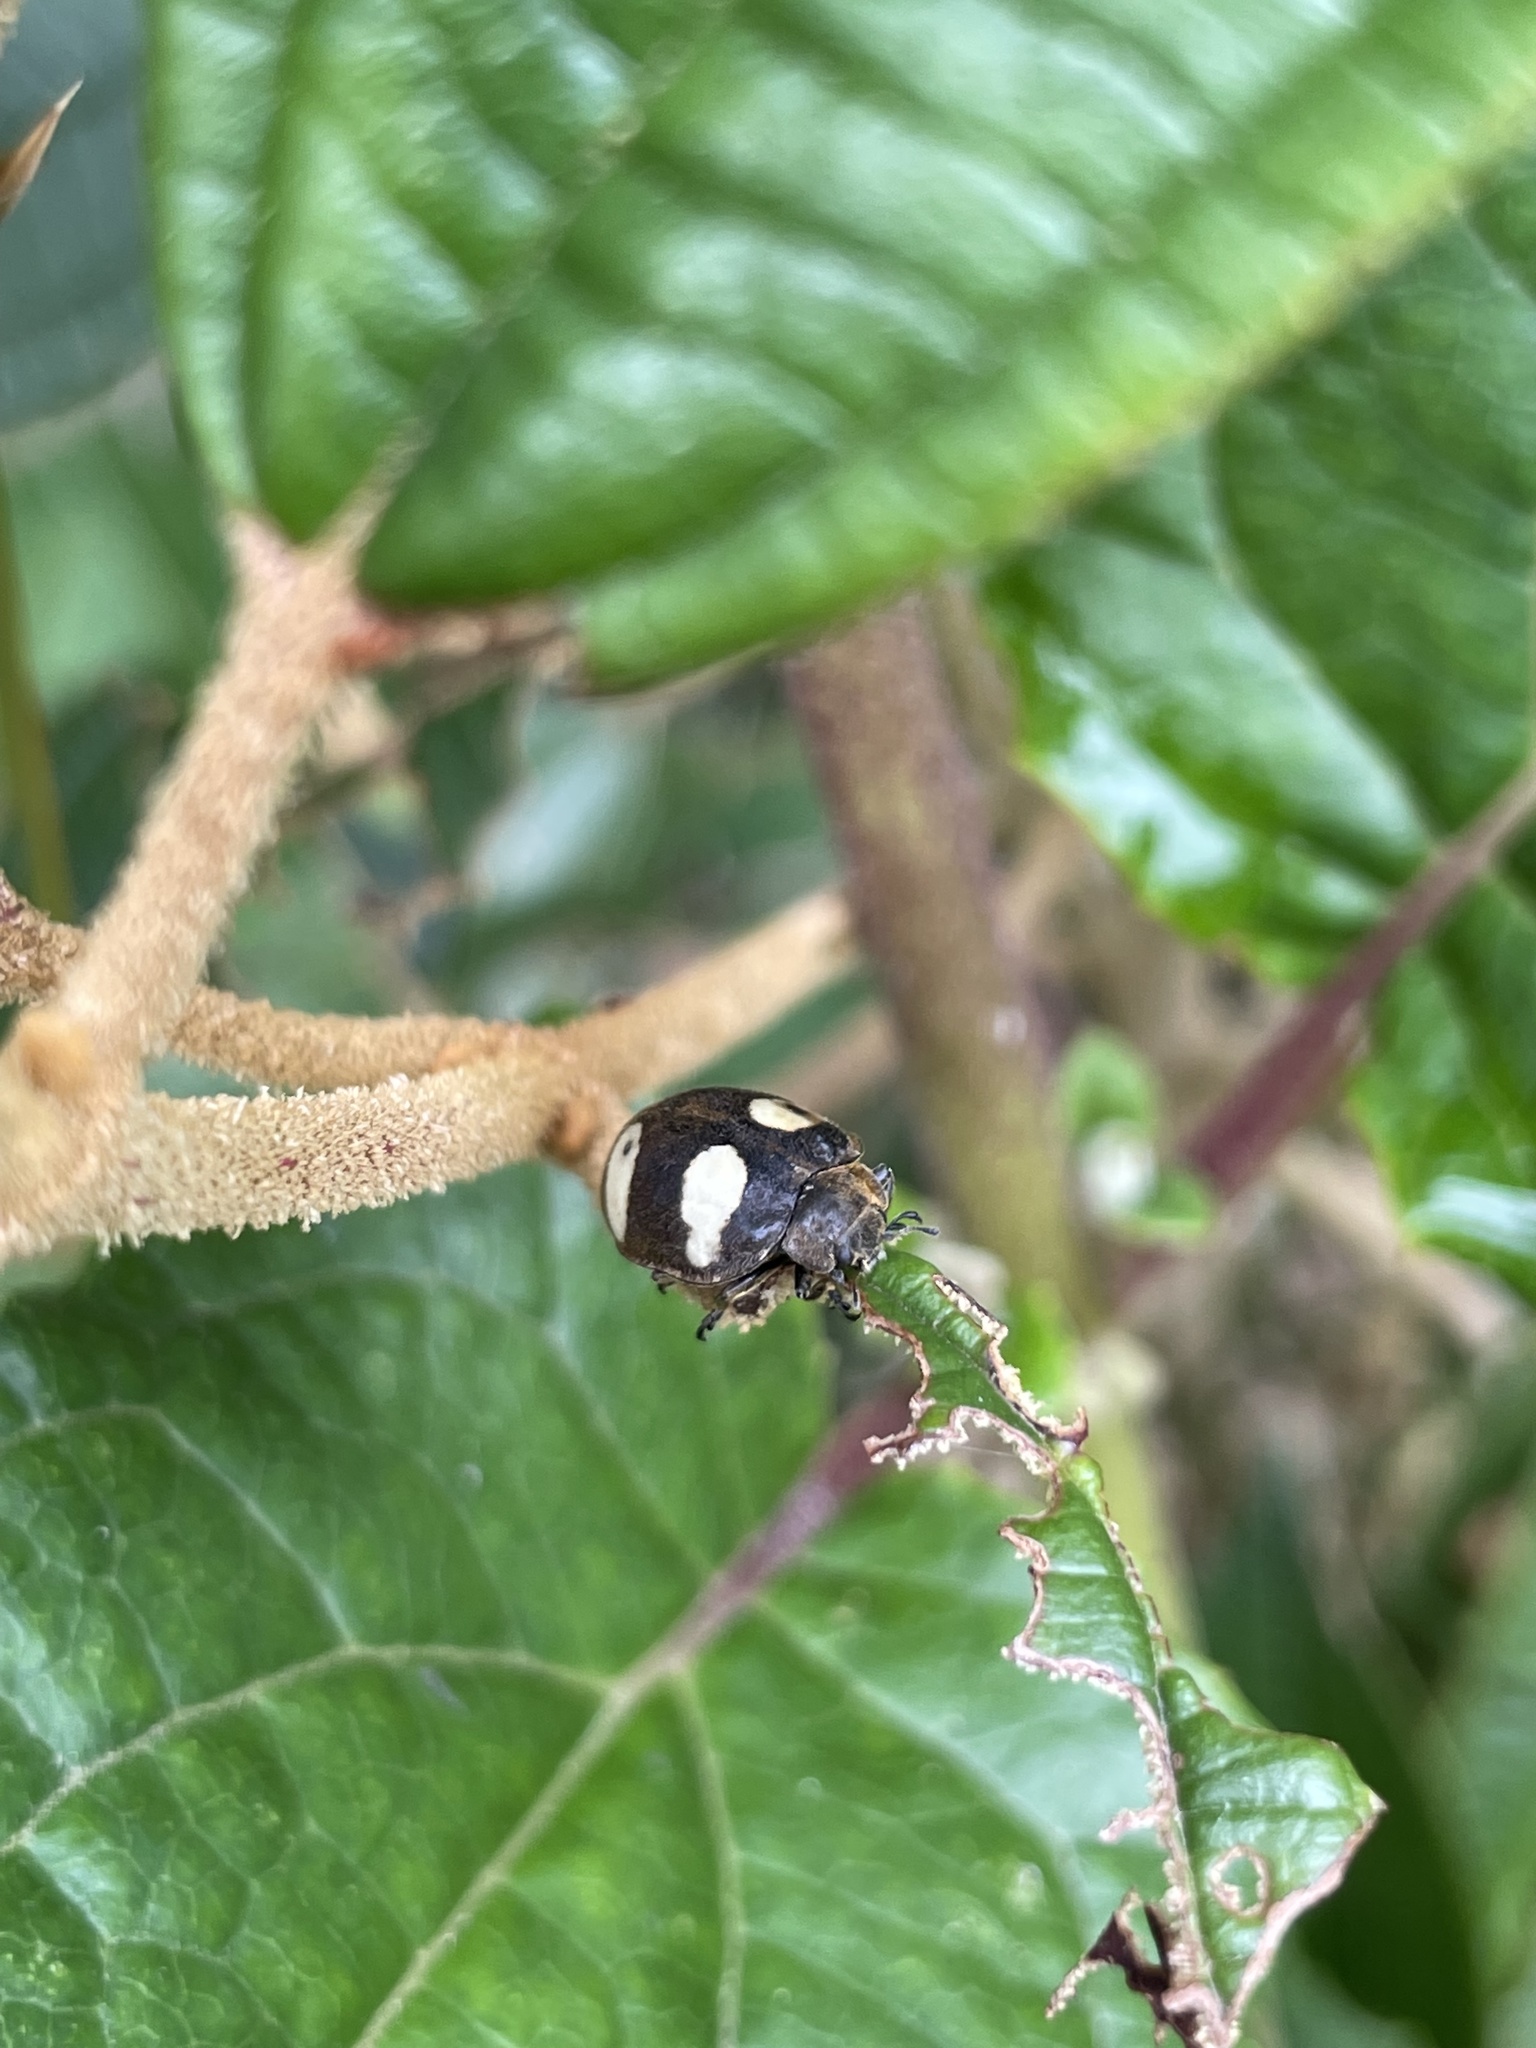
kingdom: Animalia
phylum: Arthropoda
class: Insecta
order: Coleoptera
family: Coccinellidae
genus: Epilachna
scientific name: Epilachna
